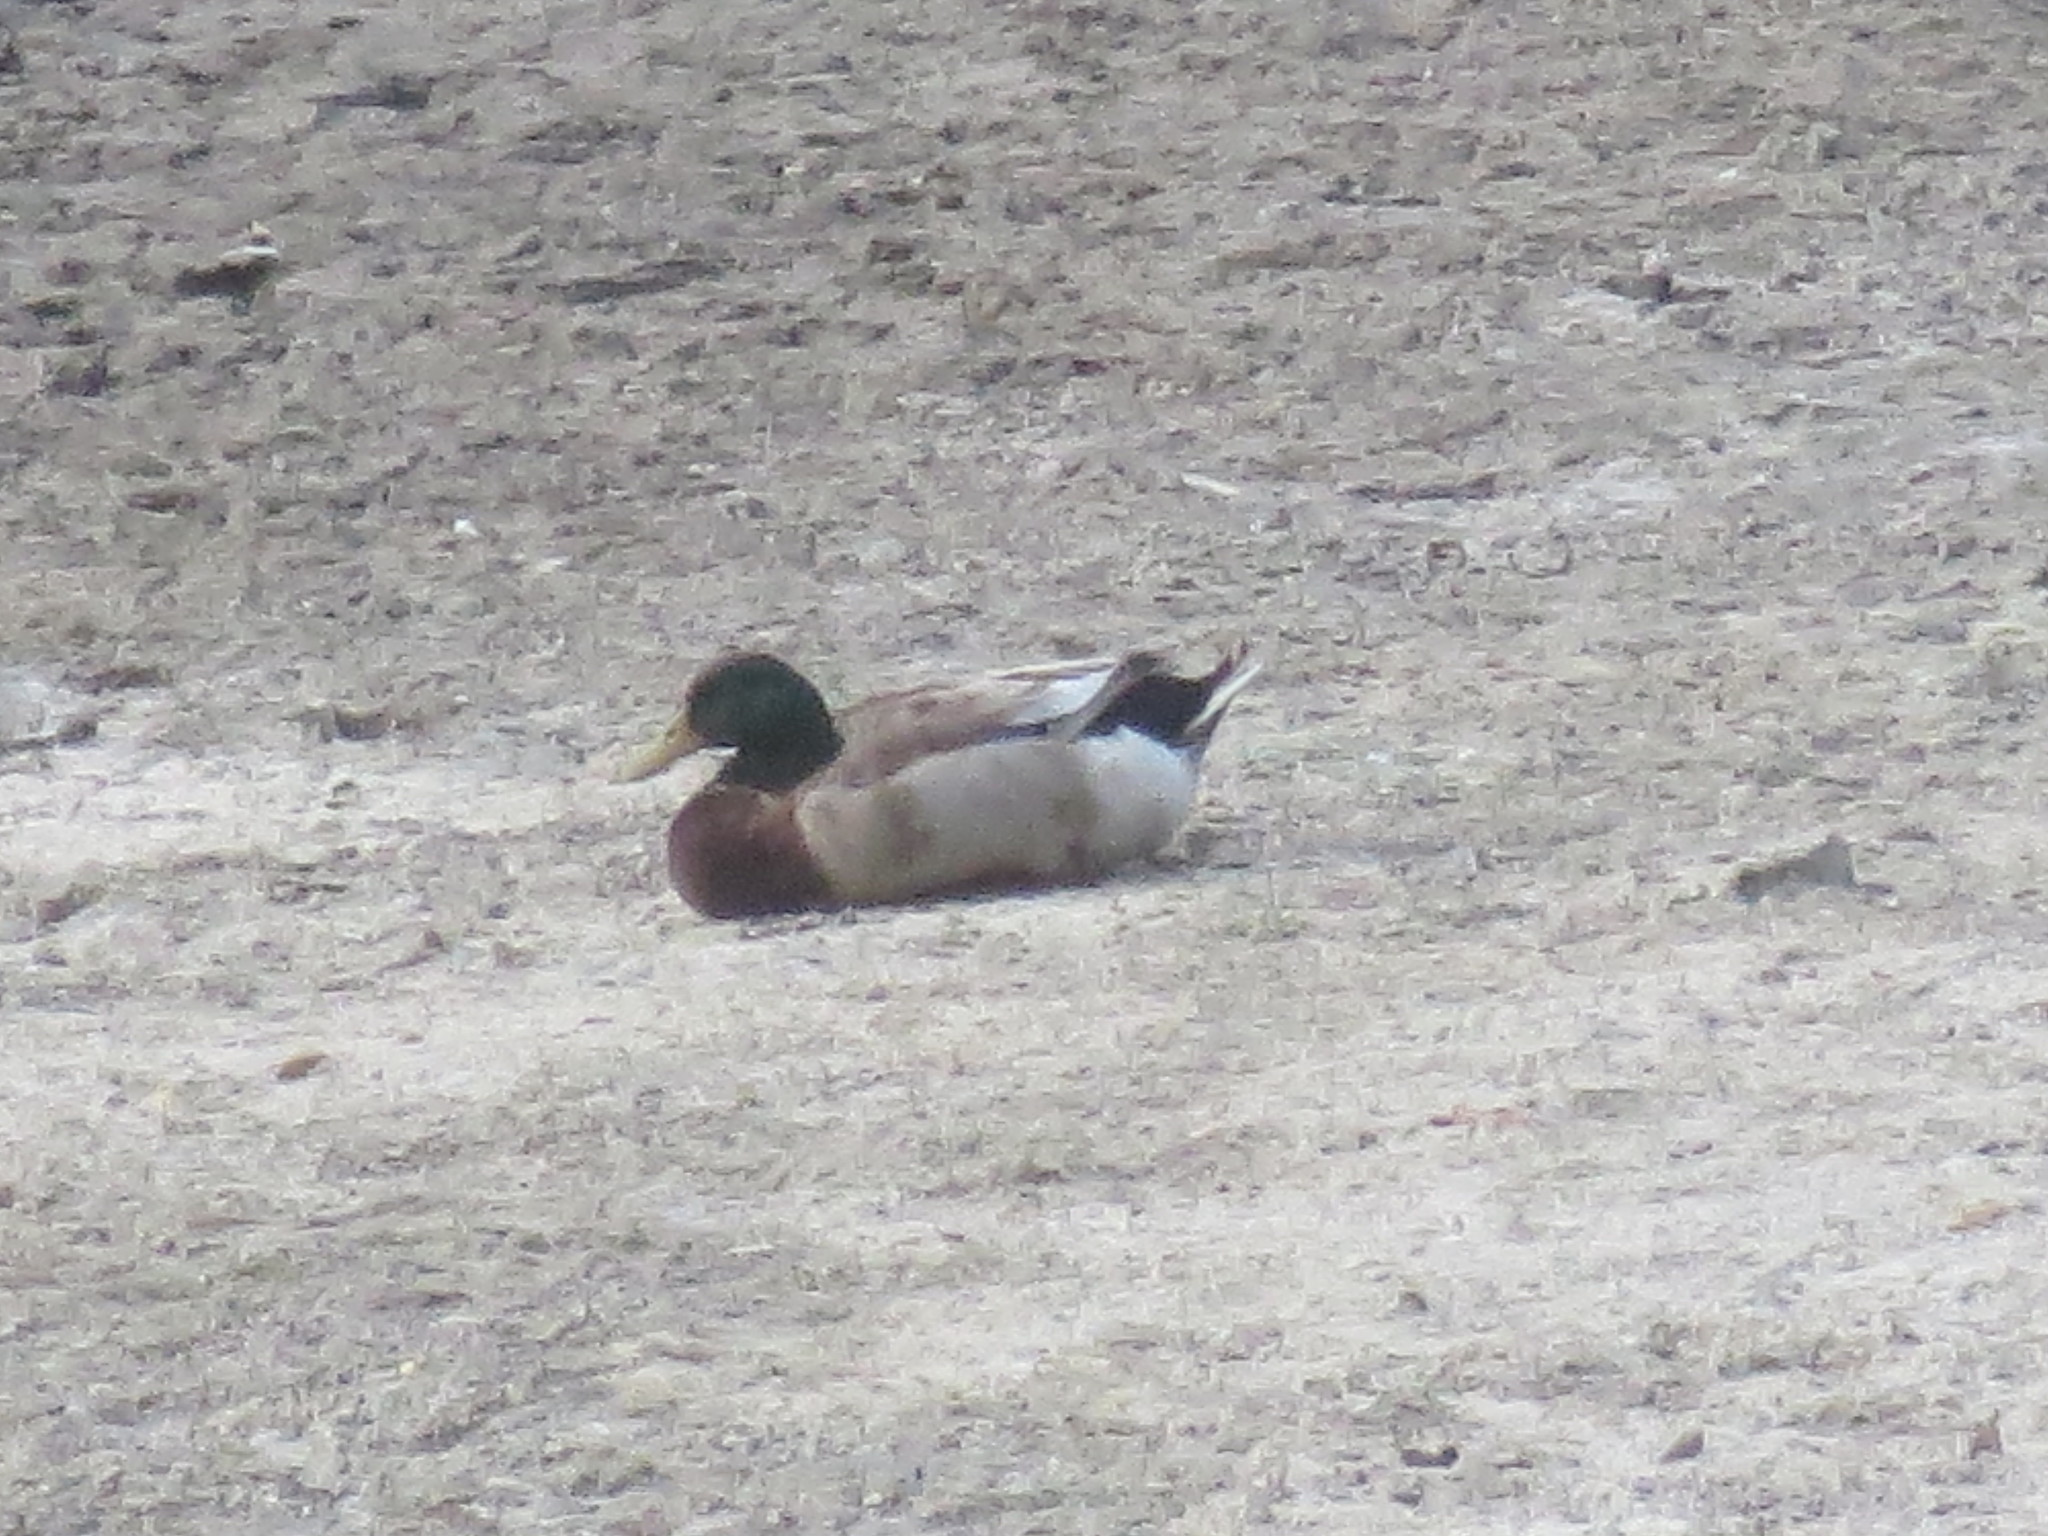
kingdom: Animalia
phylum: Chordata
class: Aves
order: Anseriformes
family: Anatidae
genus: Anas
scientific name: Anas platyrhynchos
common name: Mallard
